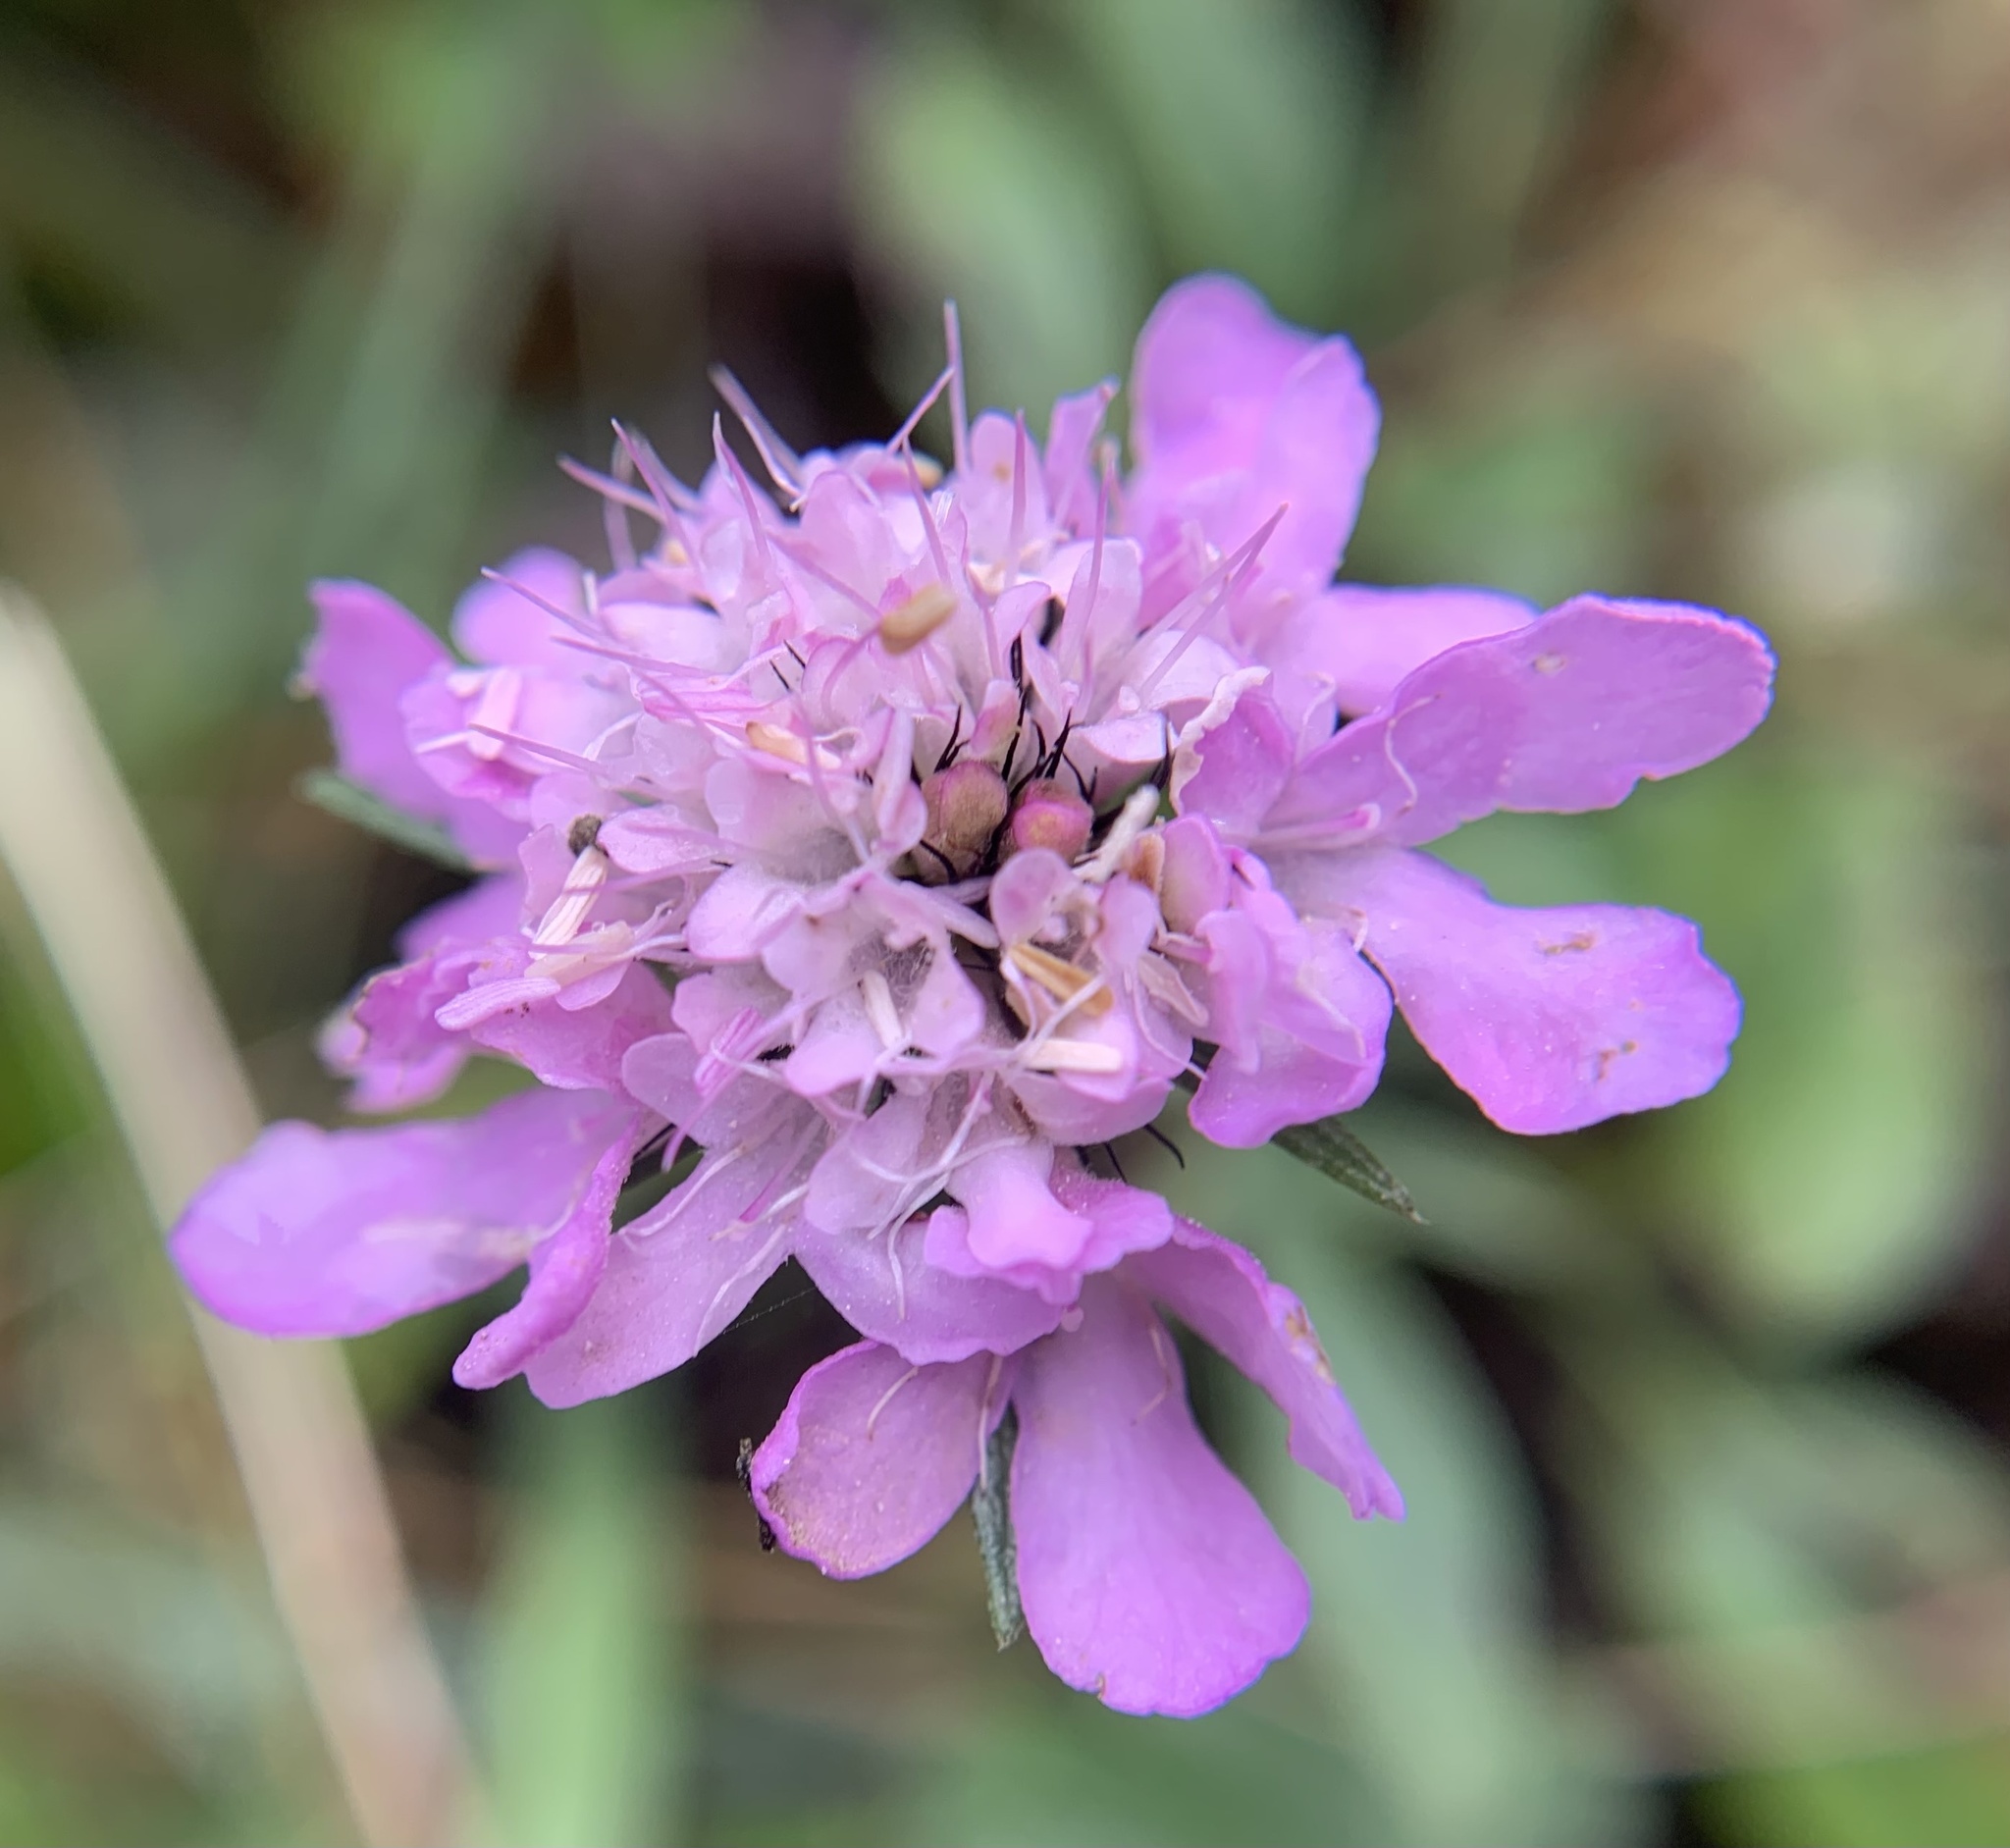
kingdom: Plantae
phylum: Tracheophyta
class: Magnoliopsida
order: Dipsacales
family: Caprifoliaceae
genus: Scabiosa
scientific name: Scabiosa lucida
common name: Shining scabious
